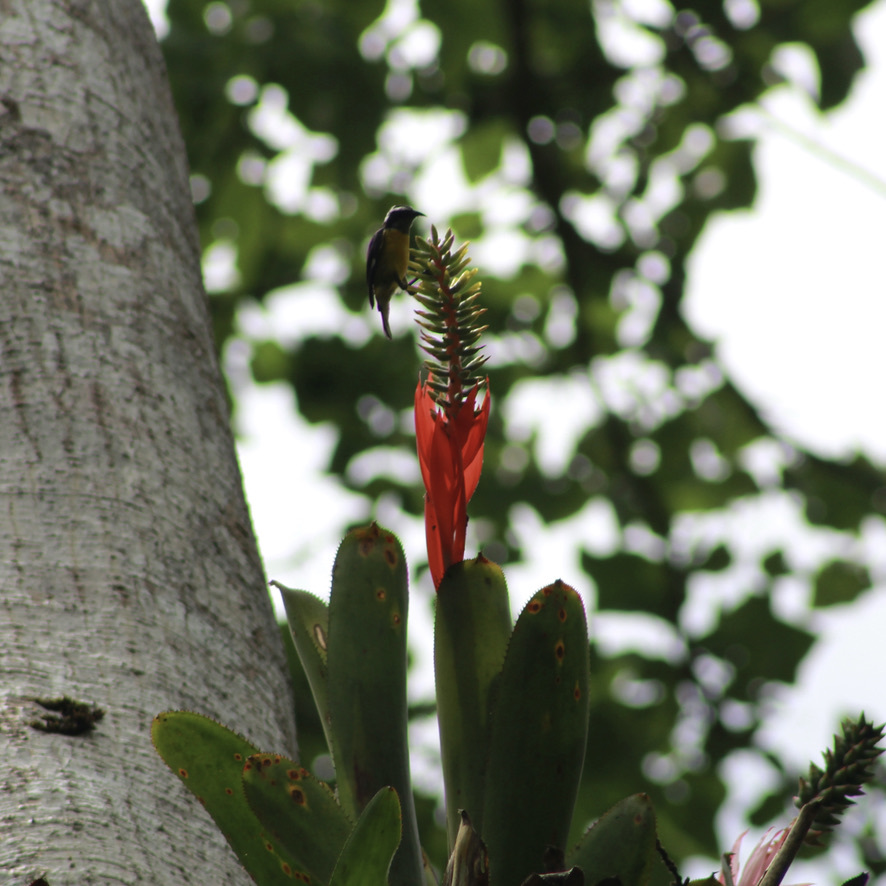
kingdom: Animalia
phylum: Chordata
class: Aves
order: Passeriformes
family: Thraupidae
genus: Coereba
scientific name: Coereba flaveola
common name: Bananaquit
